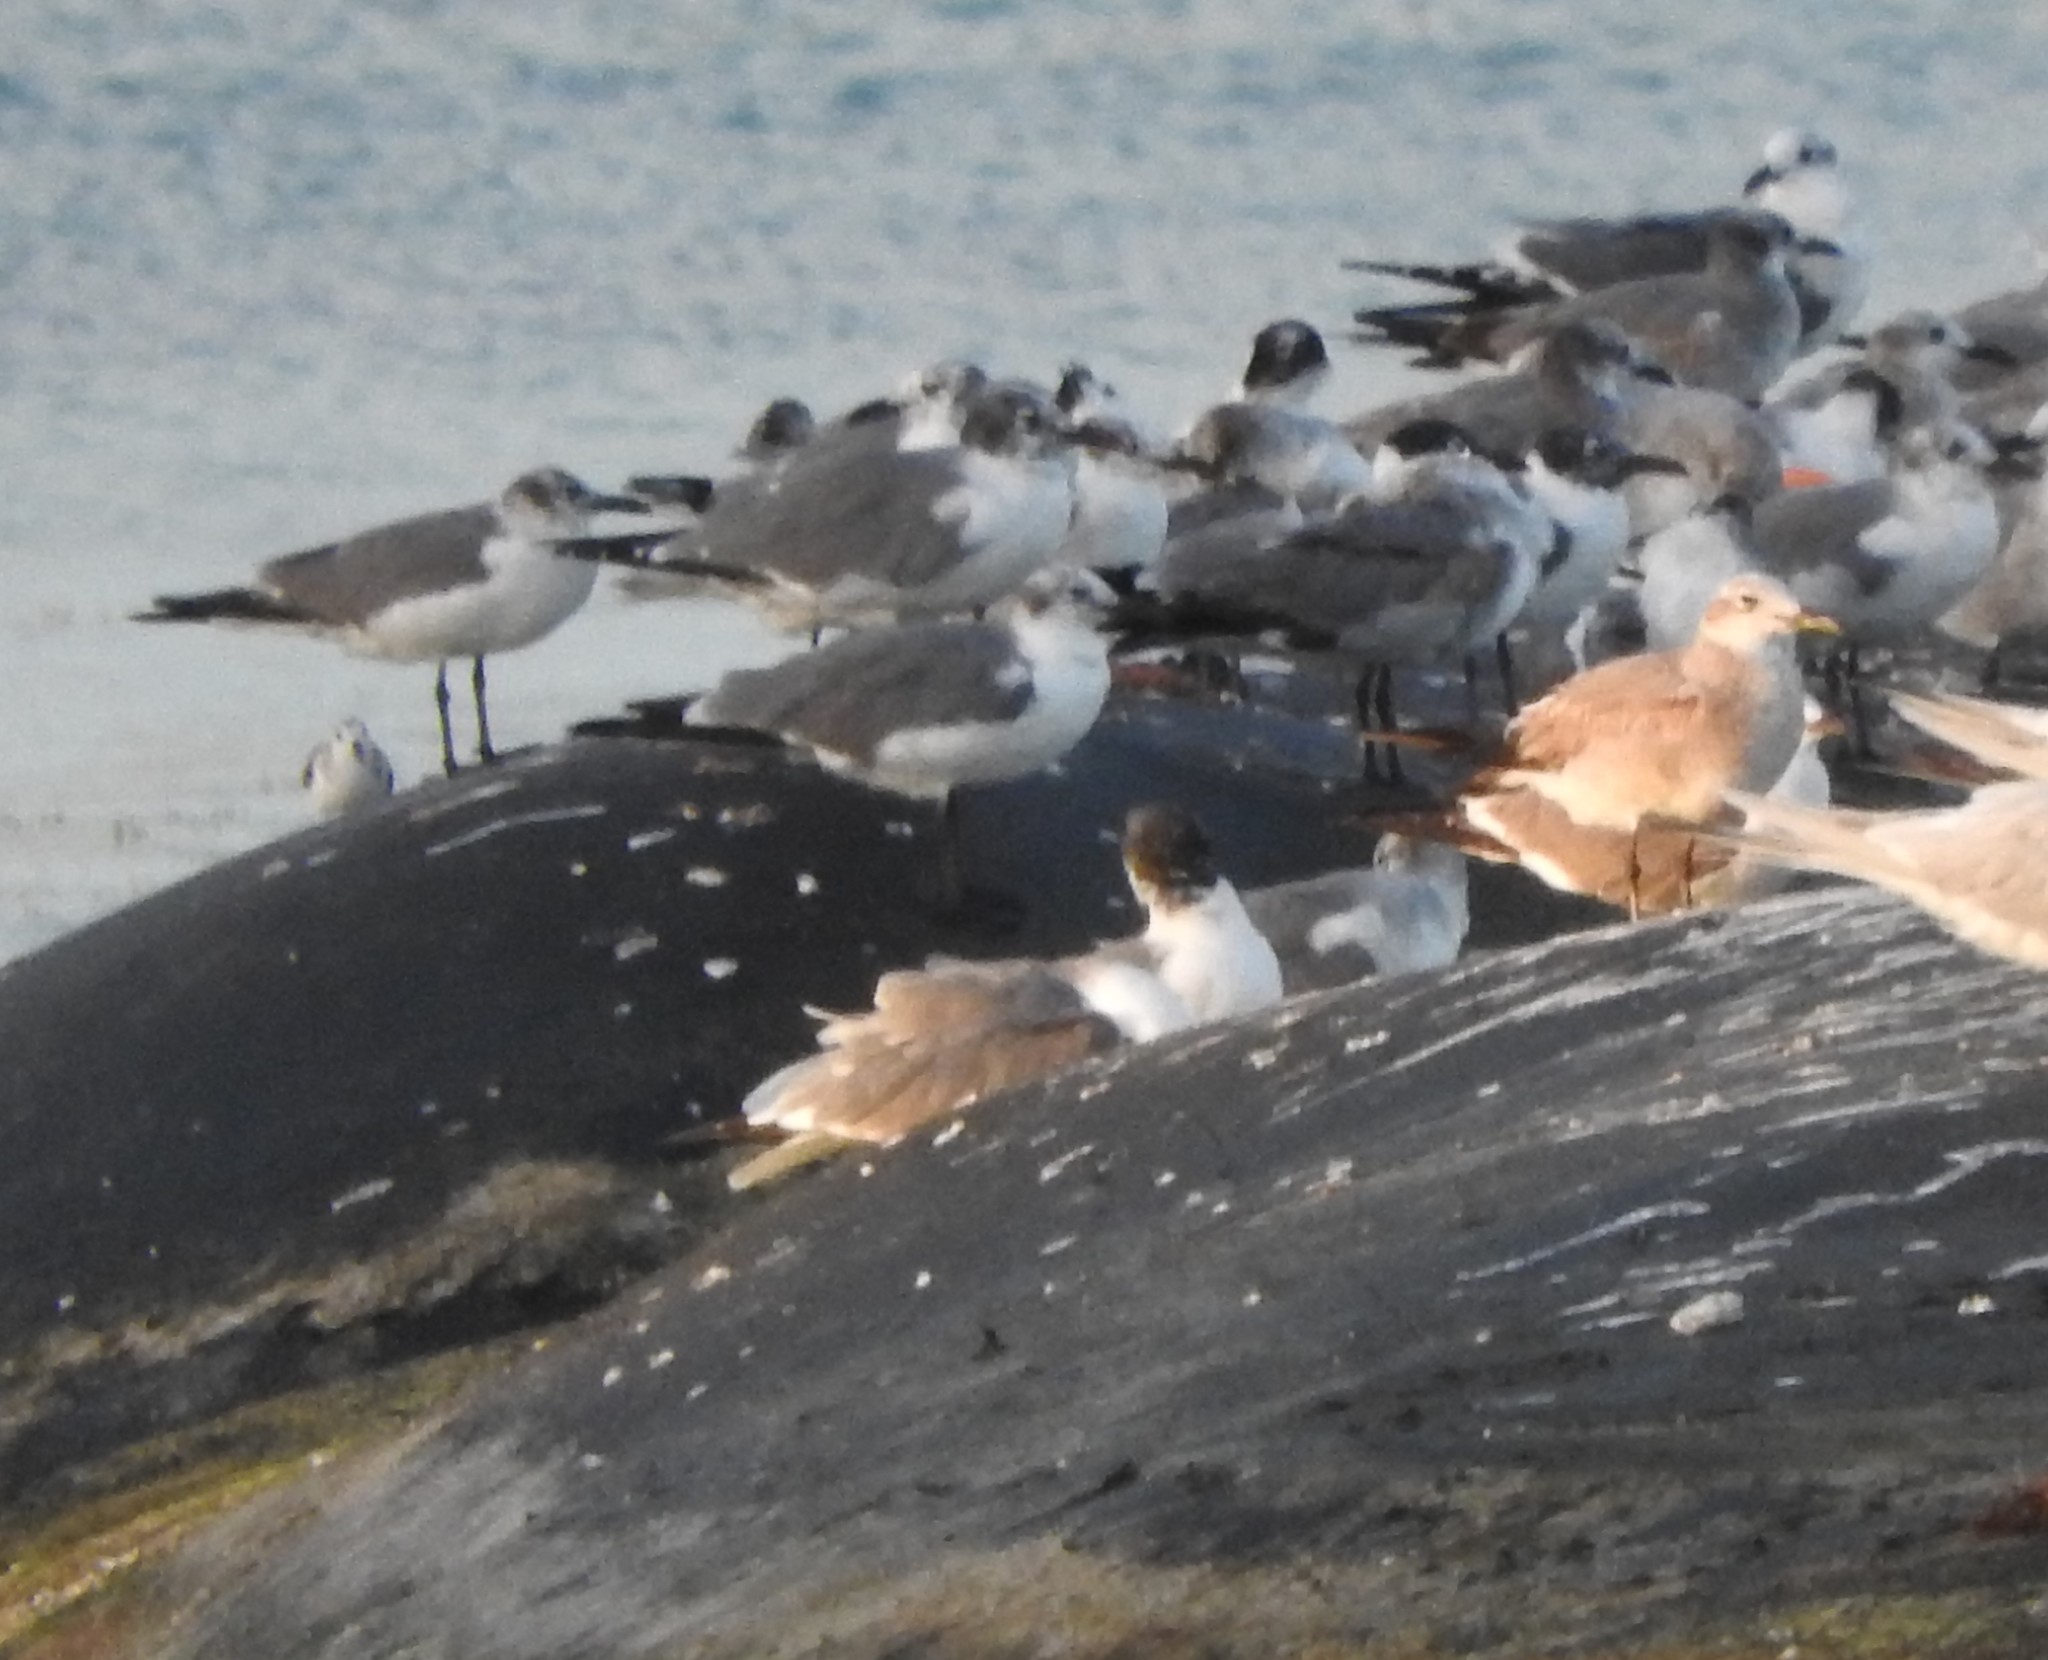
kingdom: Animalia
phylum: Chordata
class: Aves
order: Charadriiformes
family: Laridae
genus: Leucophaeus
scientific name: Leucophaeus atricilla
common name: Laughing gull
